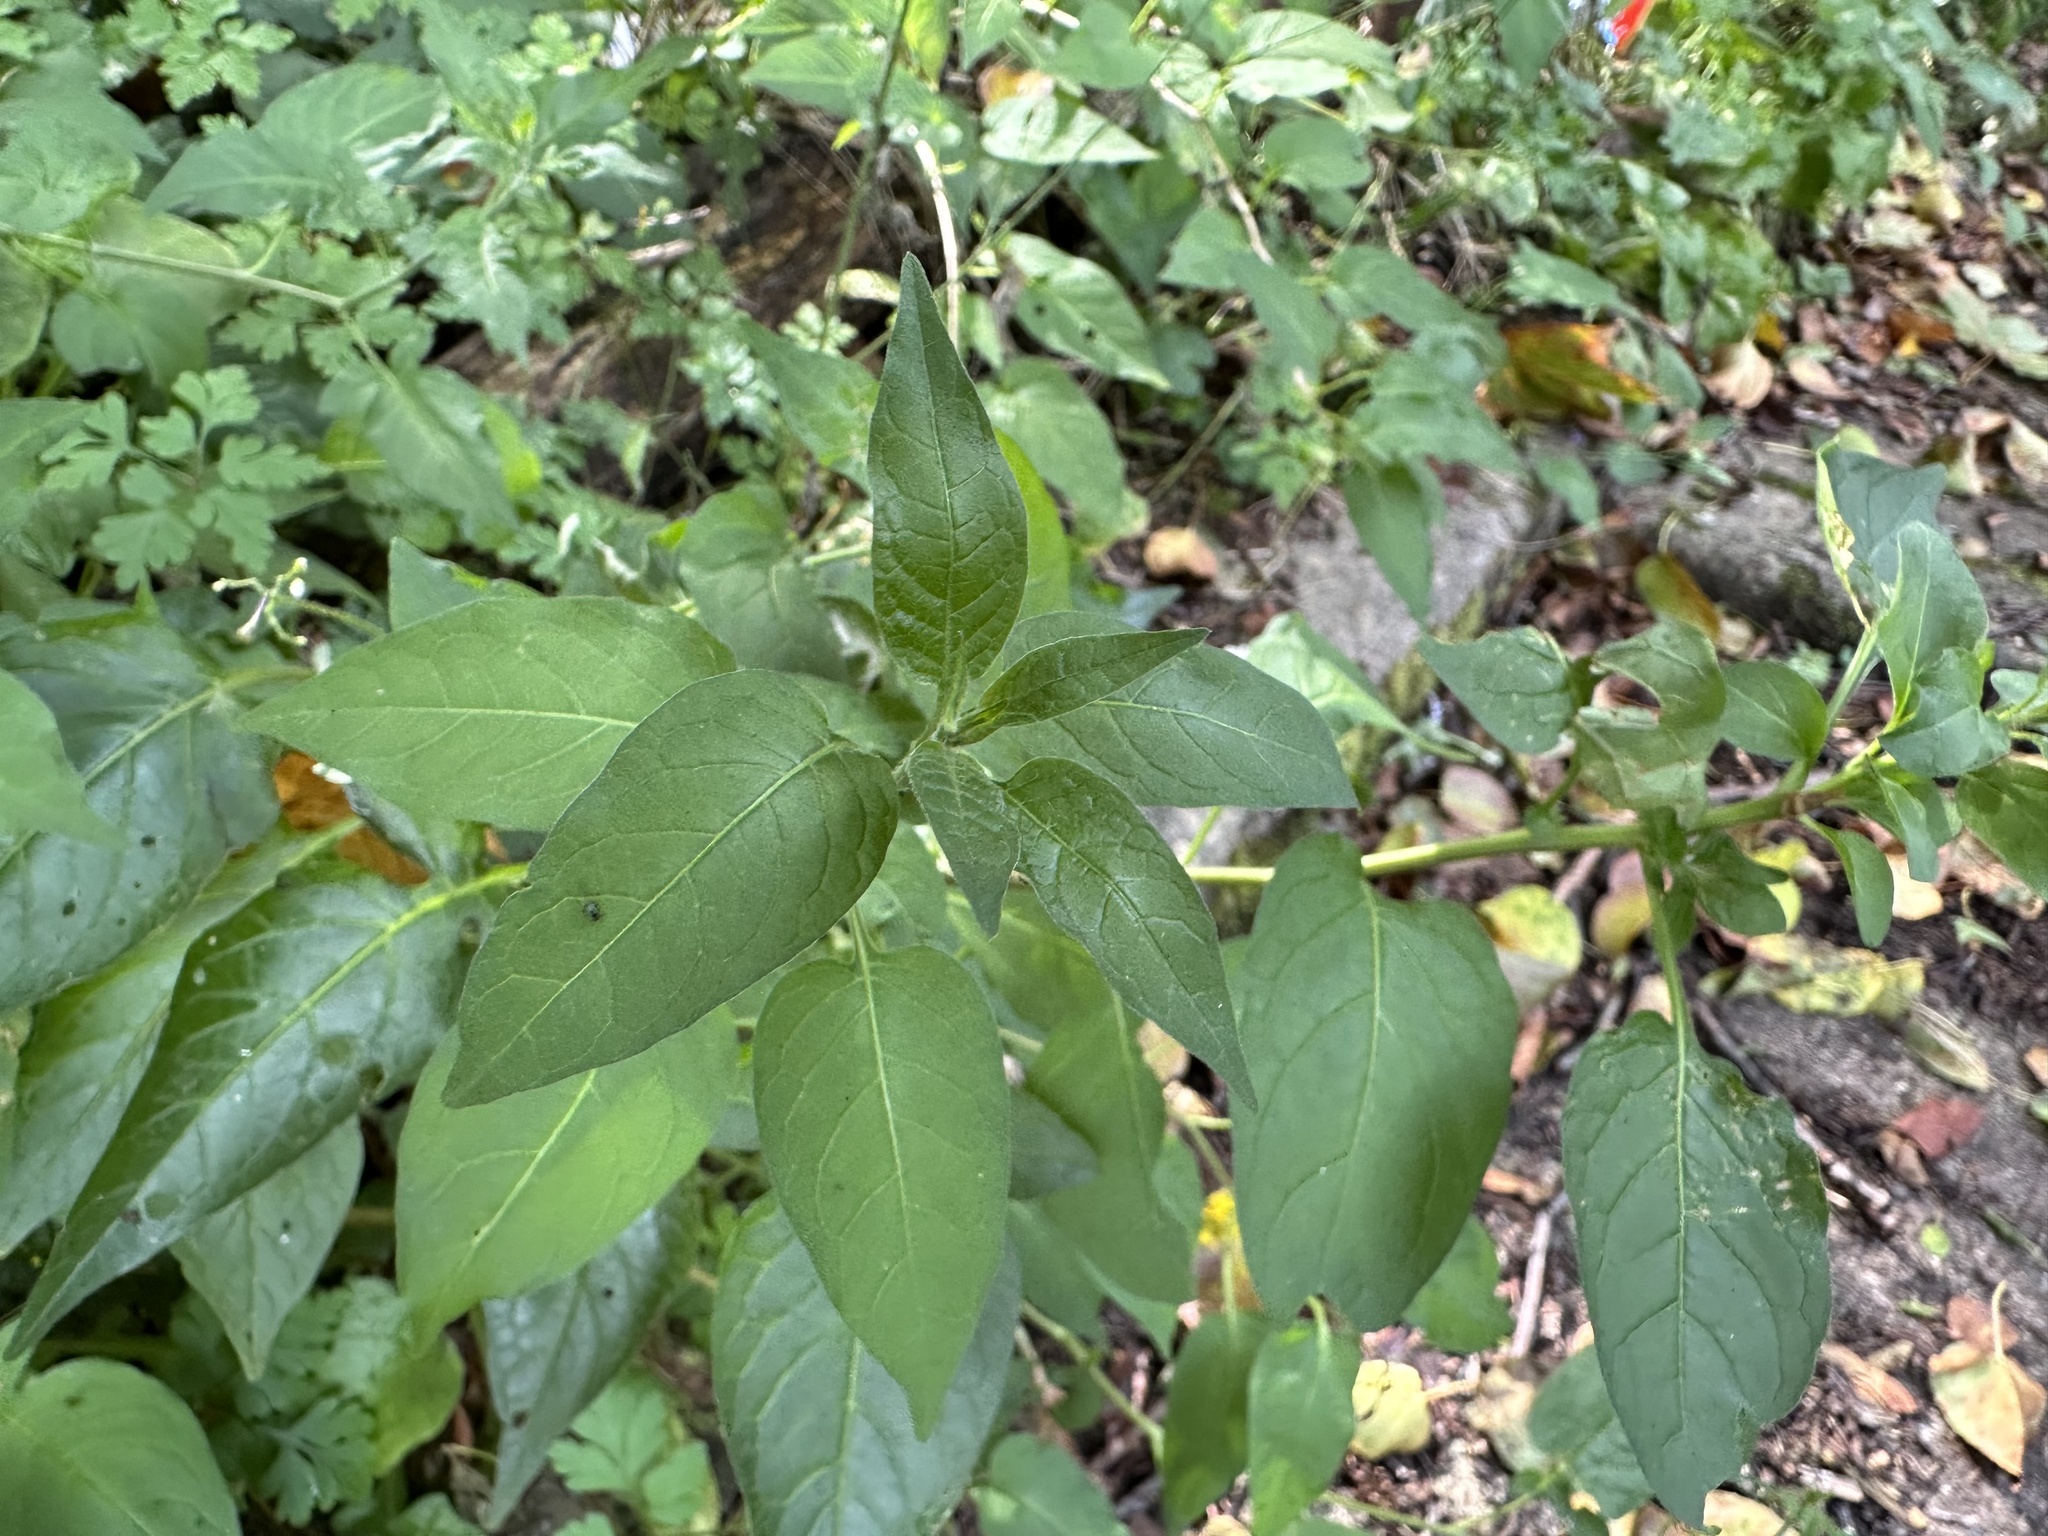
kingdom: Plantae
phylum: Tracheophyta
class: Magnoliopsida
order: Solanales
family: Solanaceae
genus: Solanum
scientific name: Solanum dulcamara
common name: Climbing nightshade
